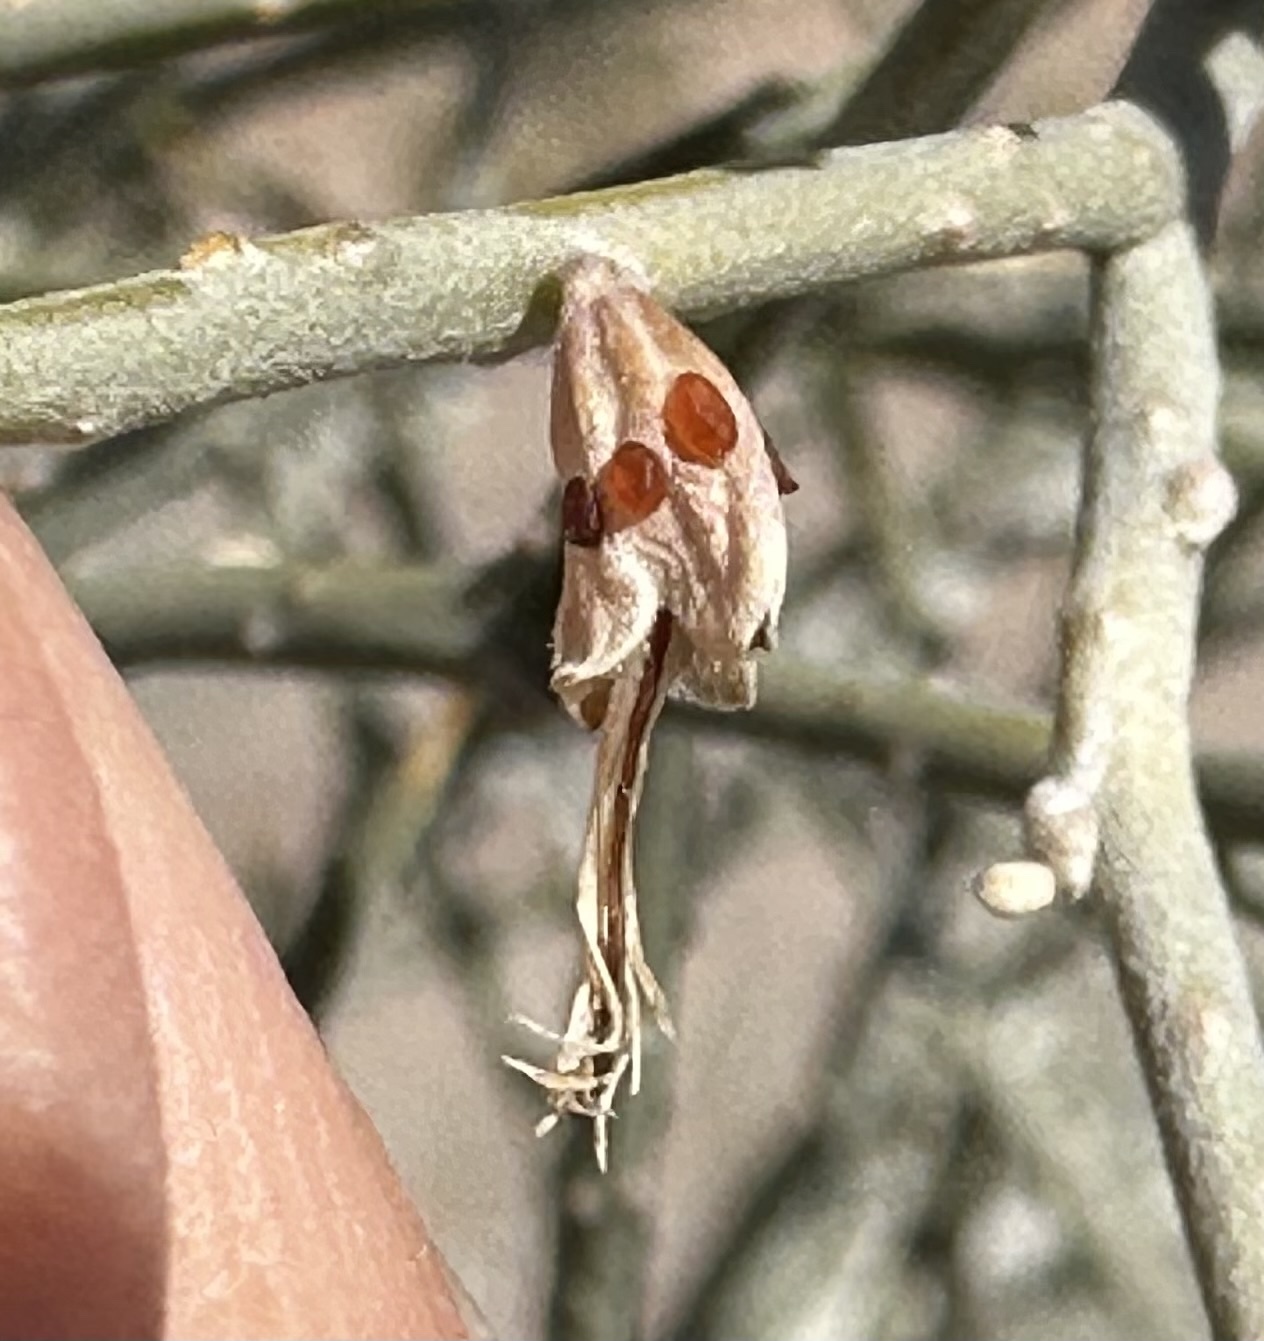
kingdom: Plantae
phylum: Tracheophyta
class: Magnoliopsida
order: Fabales
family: Fabaceae
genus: Psorothamnus
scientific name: Psorothamnus spinosus
